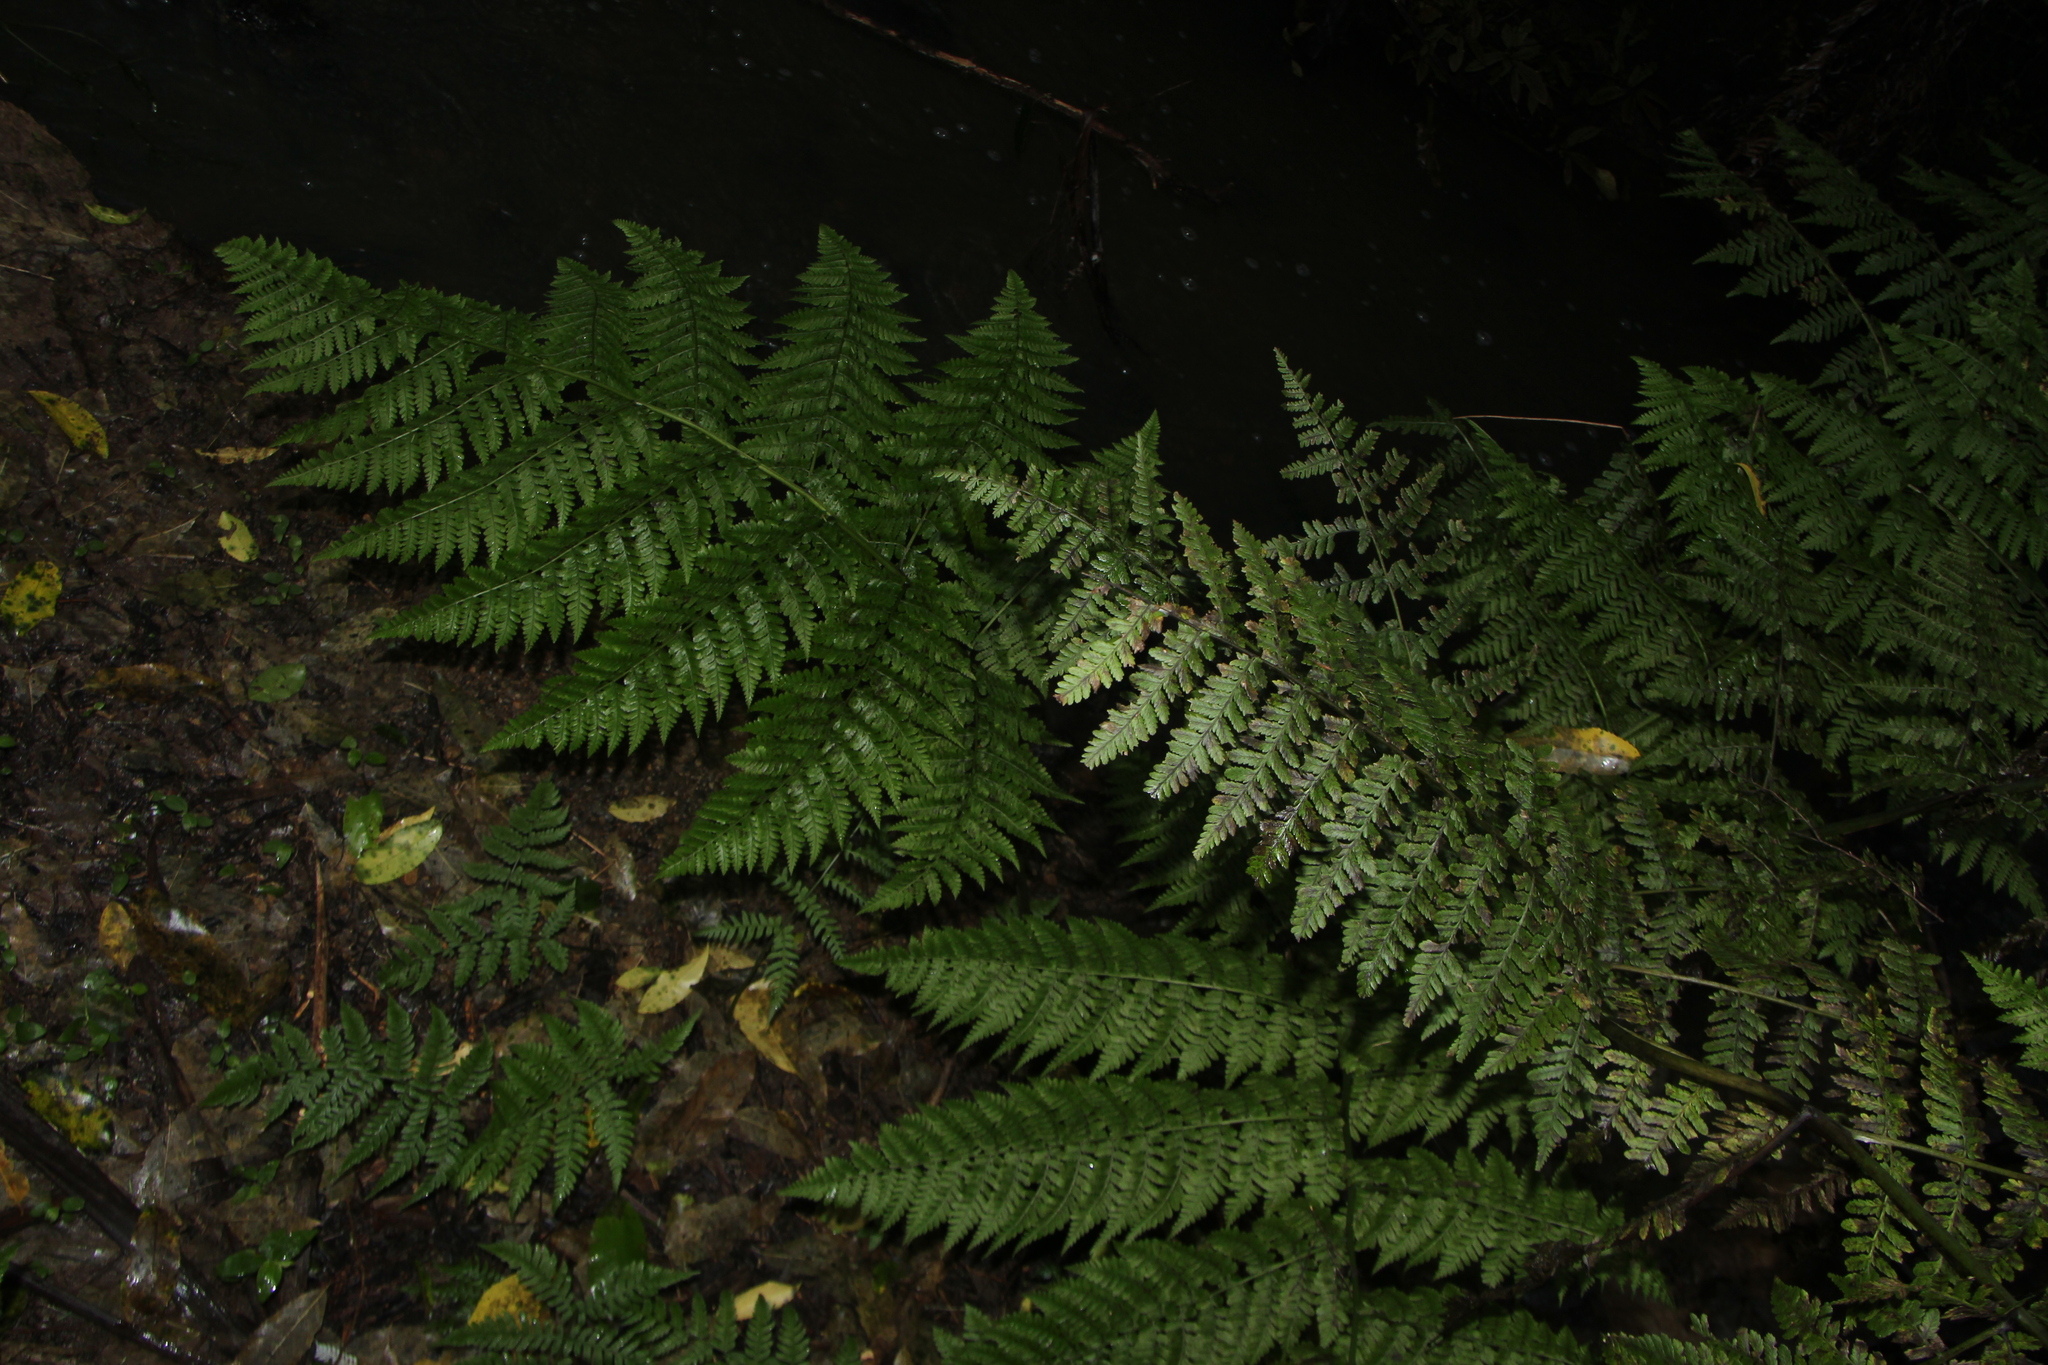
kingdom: Plantae
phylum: Tracheophyta
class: Polypodiopsida
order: Polypodiales
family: Athyriaceae
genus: Diplazium
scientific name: Diplazium australe
